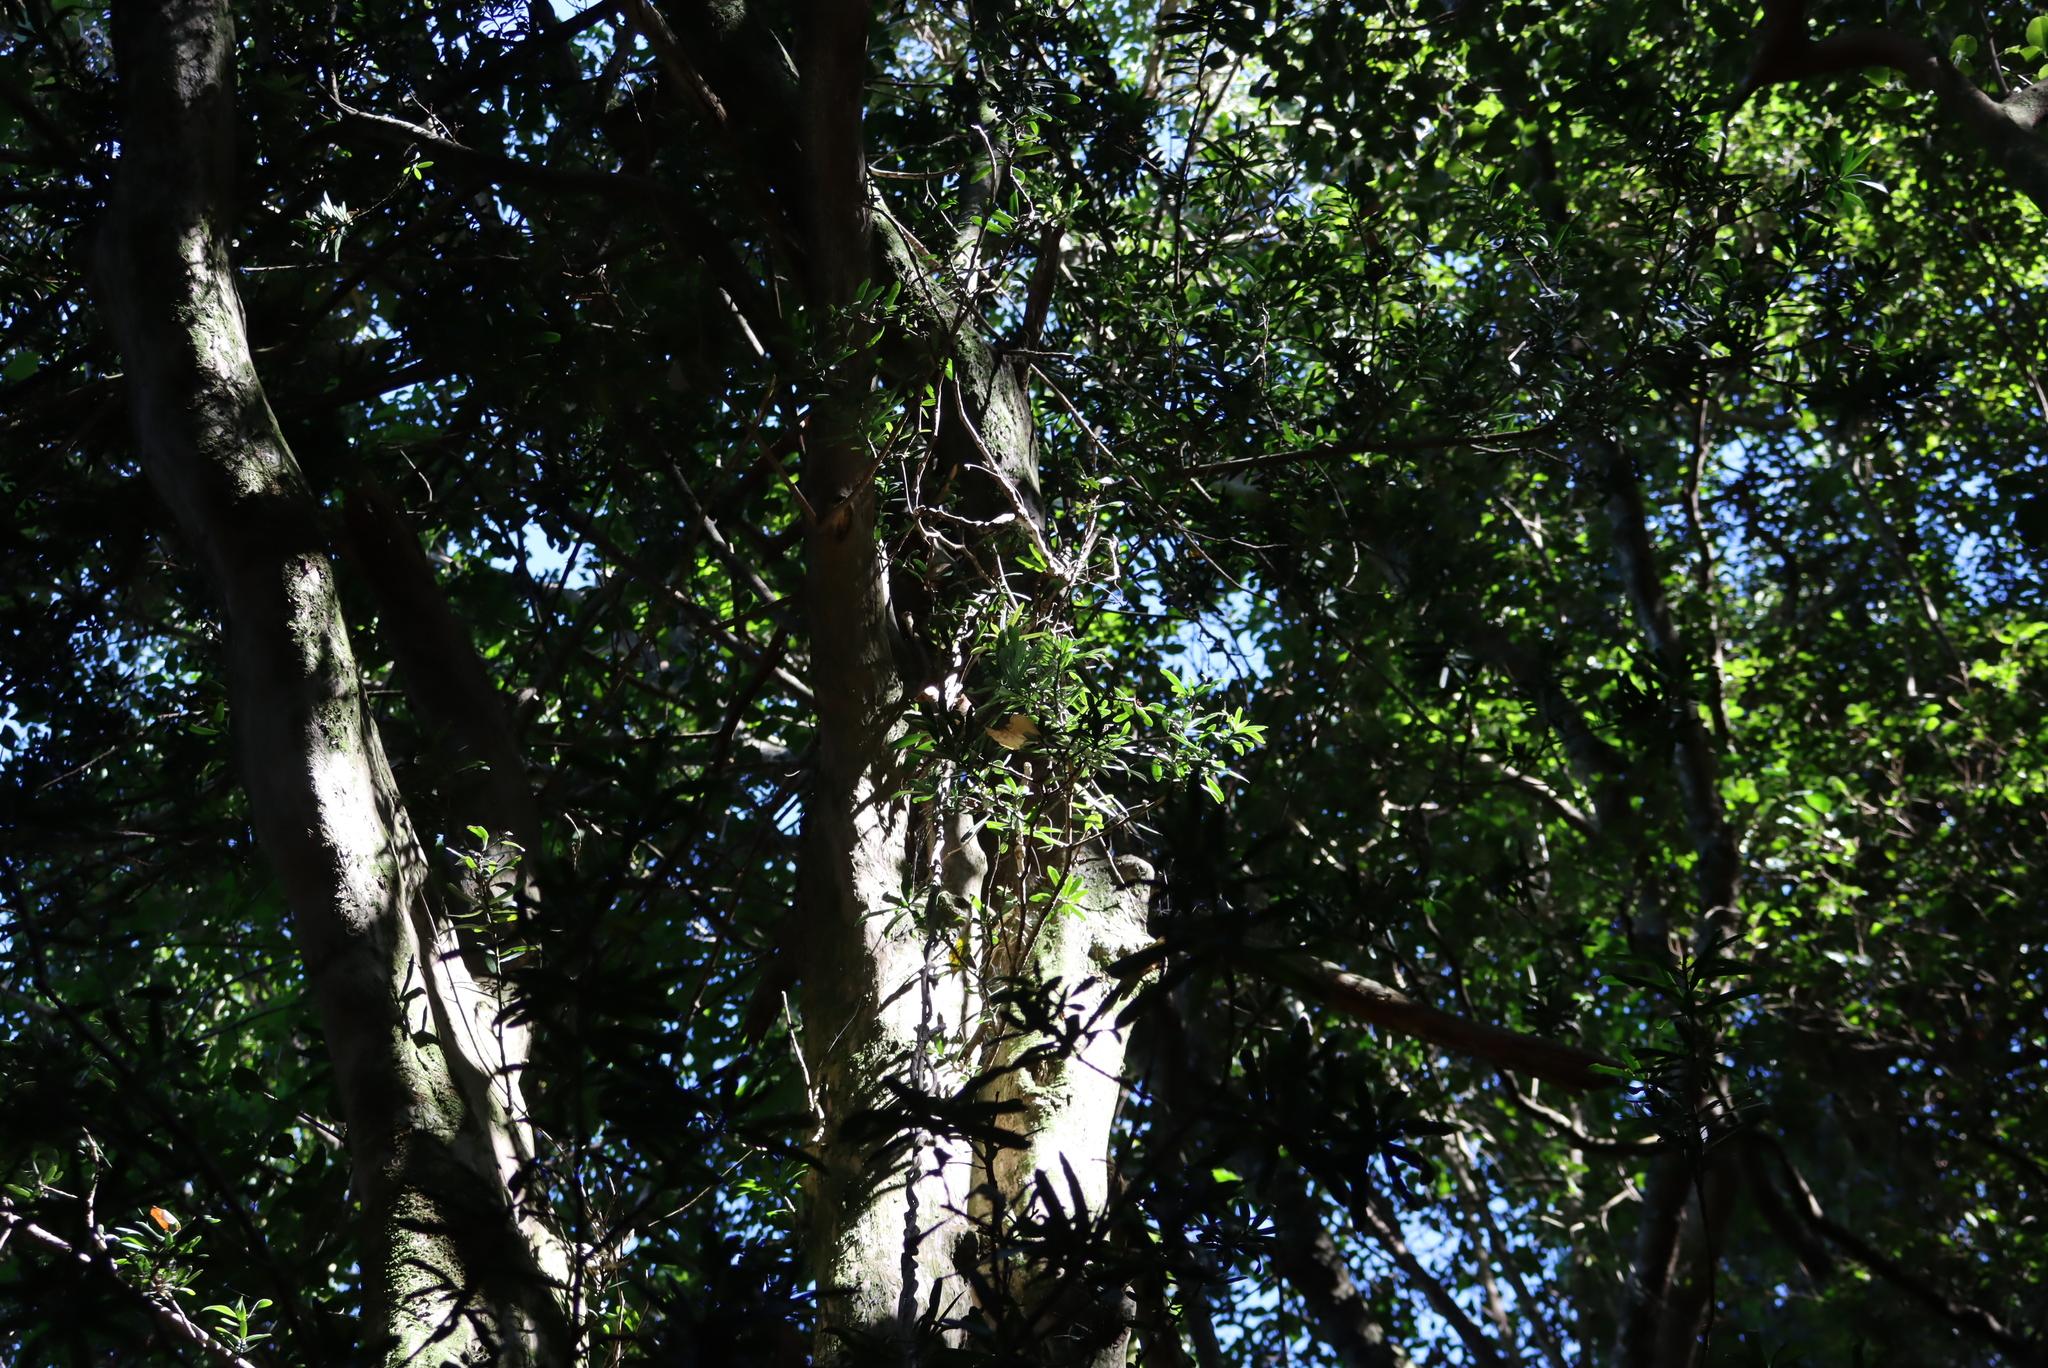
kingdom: Plantae
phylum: Tracheophyta
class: Pinopsida
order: Pinales
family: Podocarpaceae
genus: Podocarpus
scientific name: Podocarpus latifolius
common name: True yellowwood
